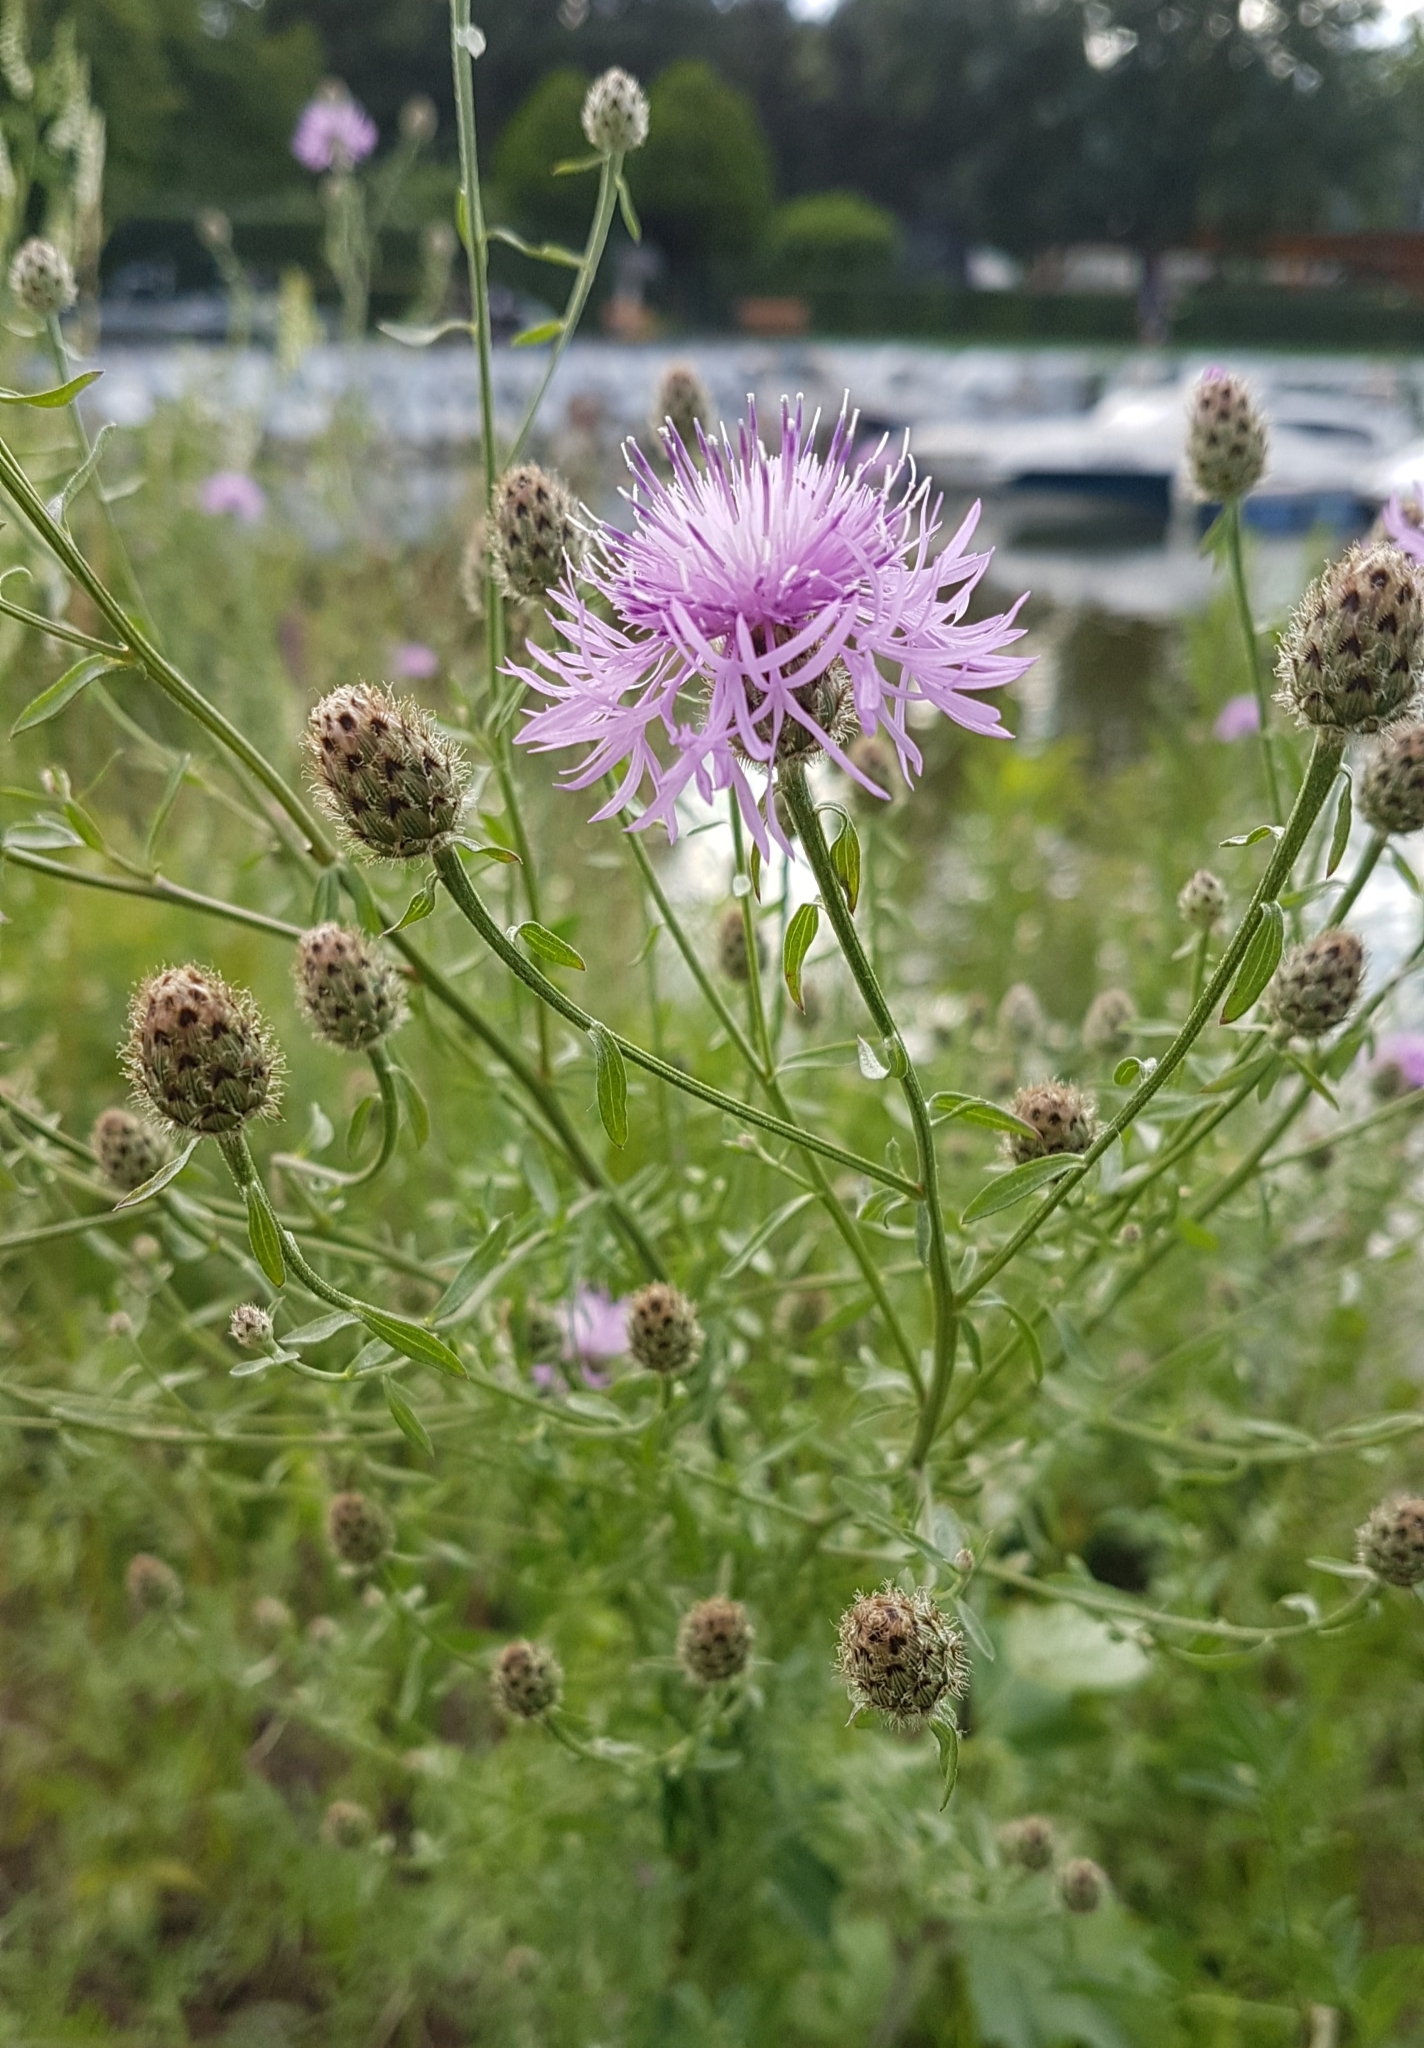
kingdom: Plantae
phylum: Tracheophyta
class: Magnoliopsida
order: Asterales
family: Asteraceae
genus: Centaurea
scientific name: Centaurea stoebe
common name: Spotted knapweed
